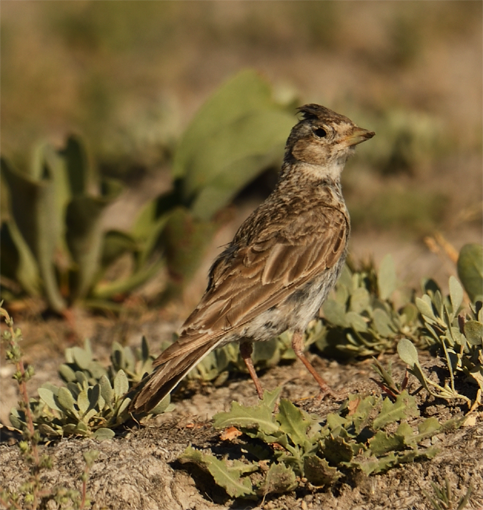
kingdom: Animalia
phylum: Chordata
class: Aves
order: Passeriformes
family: Alaudidae
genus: Alauda
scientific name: Alauda arvensis
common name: Eurasian skylark
